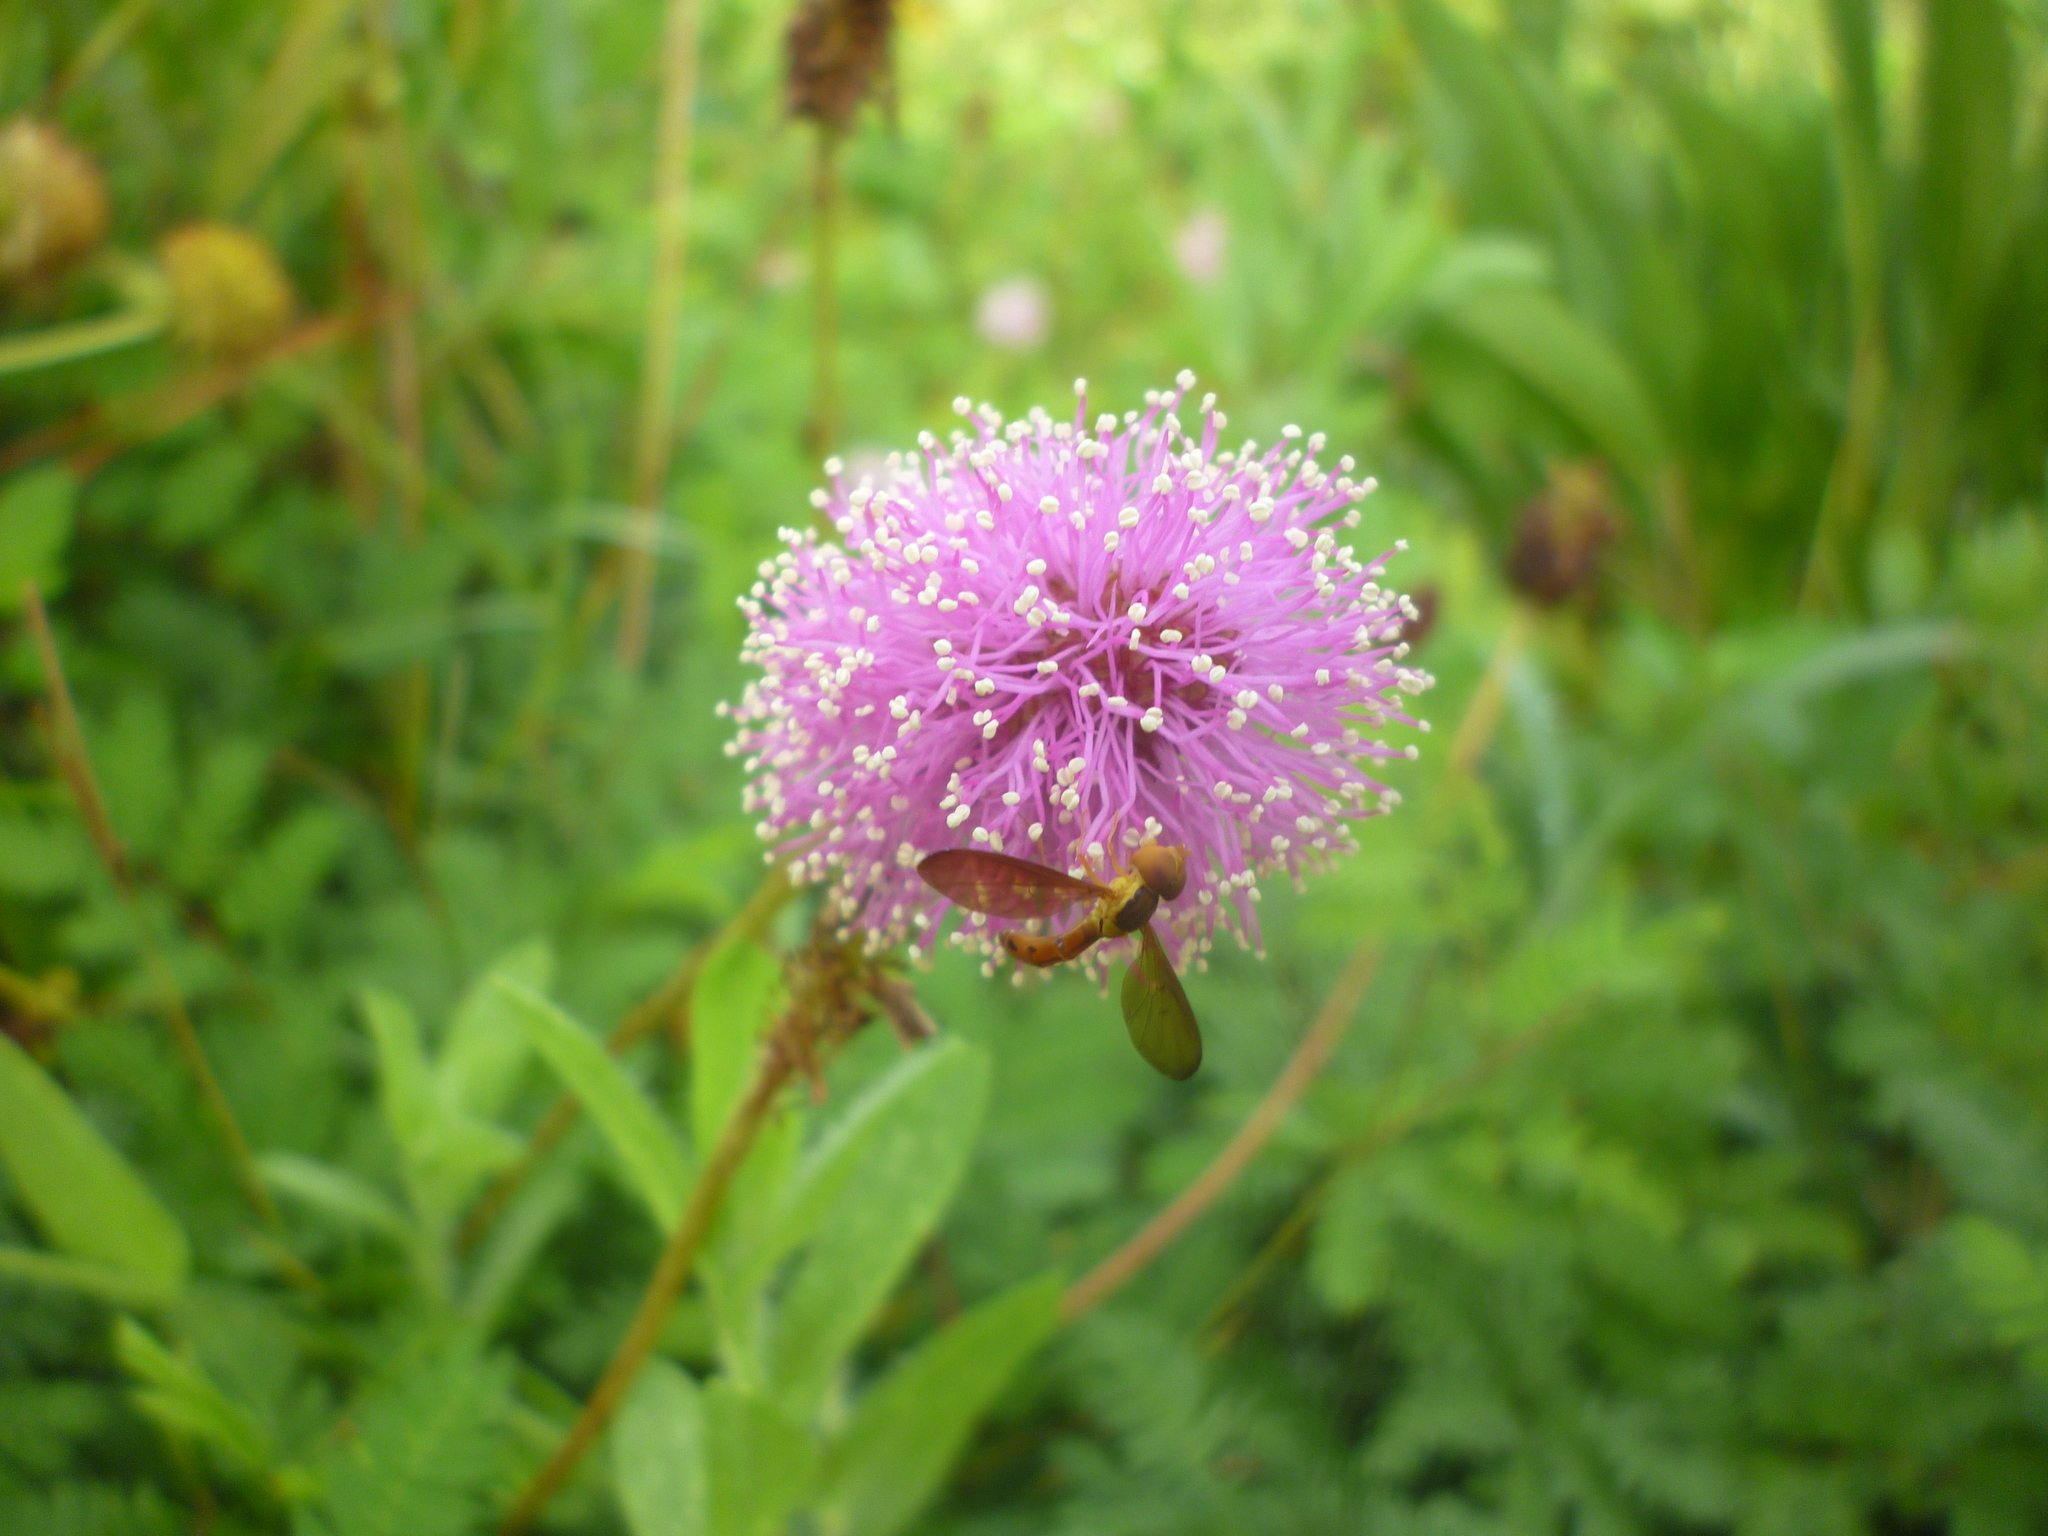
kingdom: Plantae
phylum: Tracheophyta
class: Magnoliopsida
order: Fabales
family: Fabaceae
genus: Mimosa
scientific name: Mimosa strigillosa
